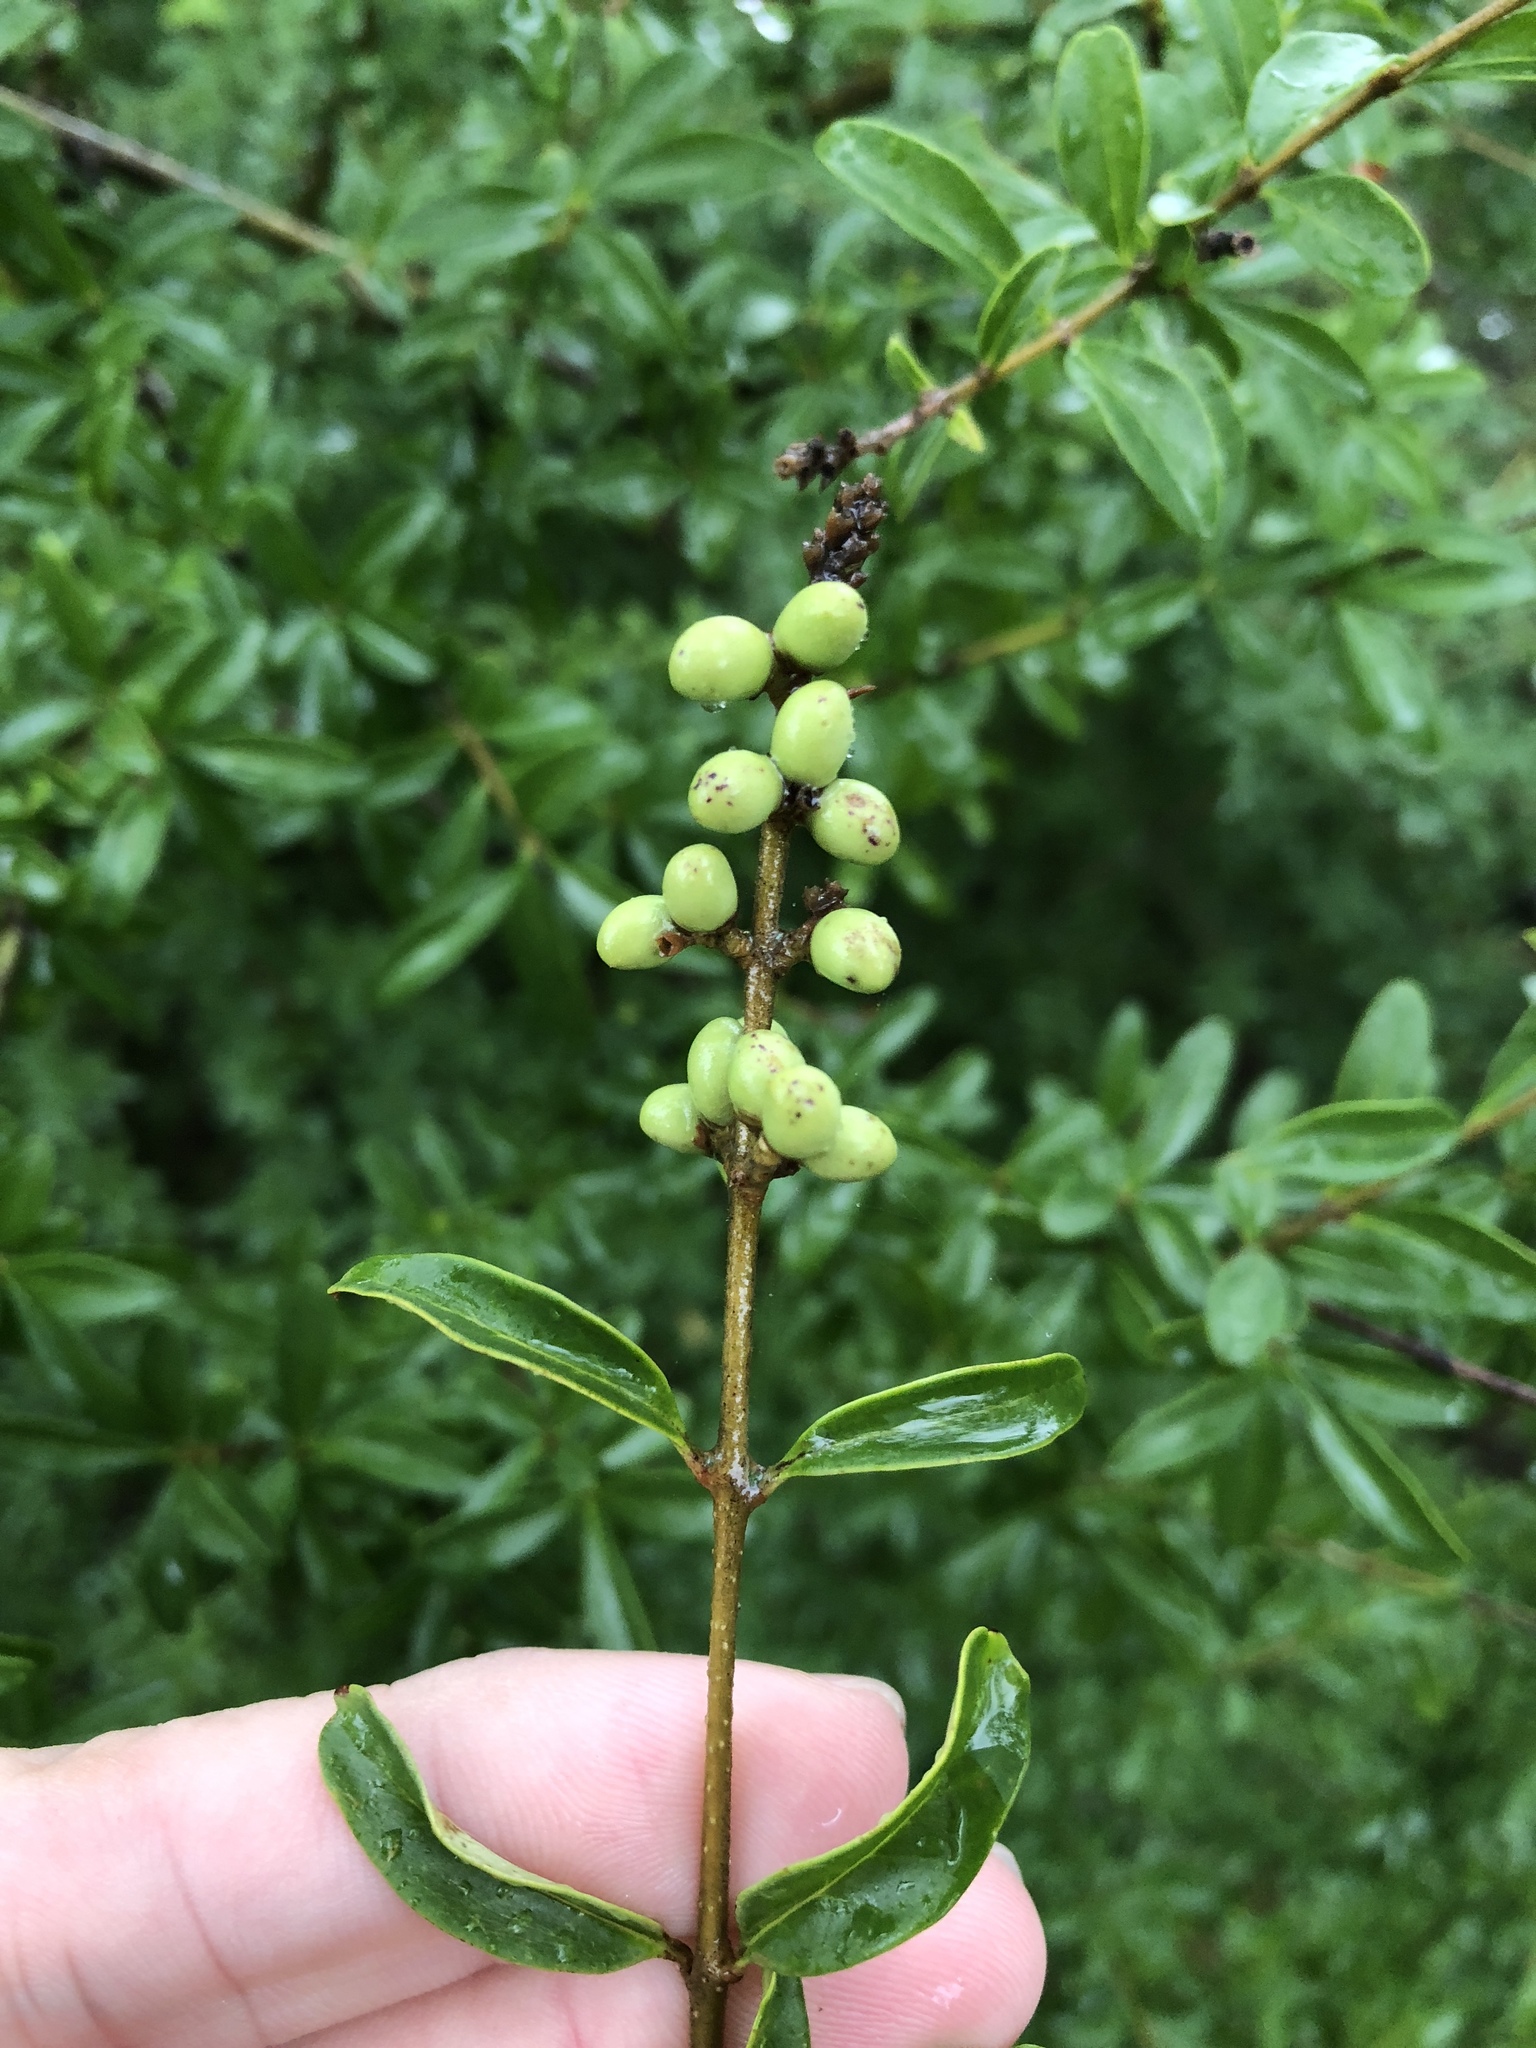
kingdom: Plantae
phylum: Tracheophyta
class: Magnoliopsida
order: Lamiales
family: Oleaceae
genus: Ligustrum
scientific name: Ligustrum quihoui
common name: Waxyleaf privet
